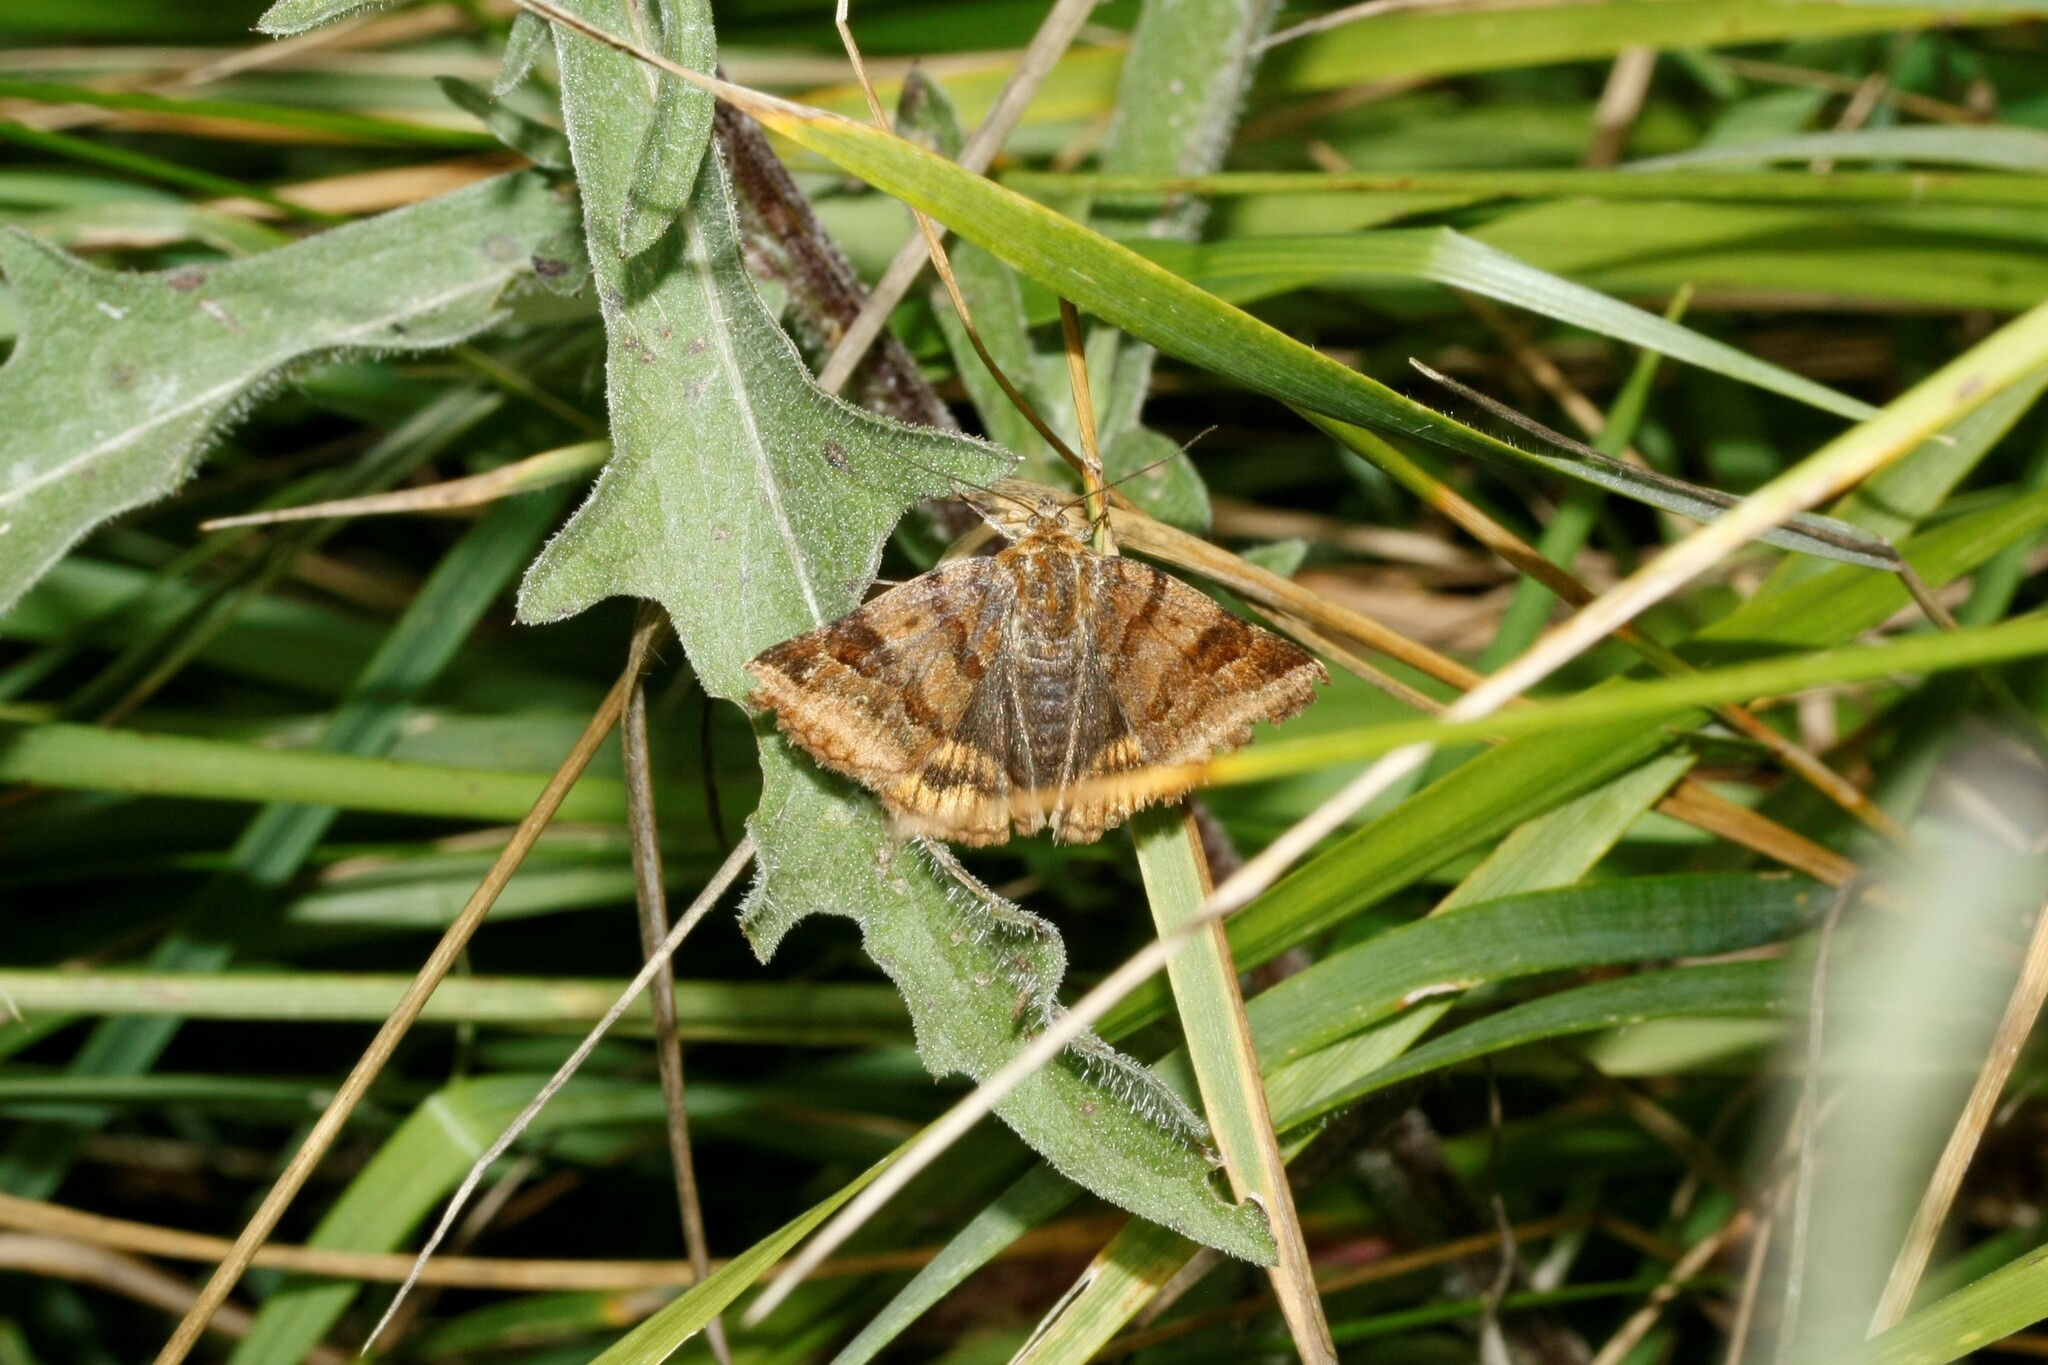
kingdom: Animalia
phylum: Arthropoda
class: Insecta
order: Lepidoptera
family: Erebidae
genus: Euclidia
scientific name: Euclidia glyphica
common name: Burnet companion
